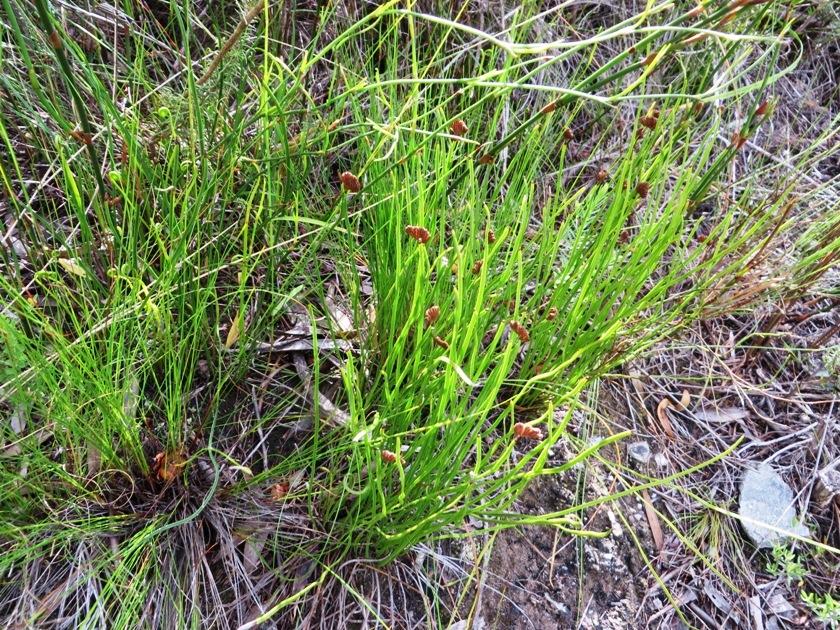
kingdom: Plantae
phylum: Tracheophyta
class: Polypodiopsida
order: Schizaeales
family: Schizaeaceae
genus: Schizaea
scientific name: Schizaea pectinata
